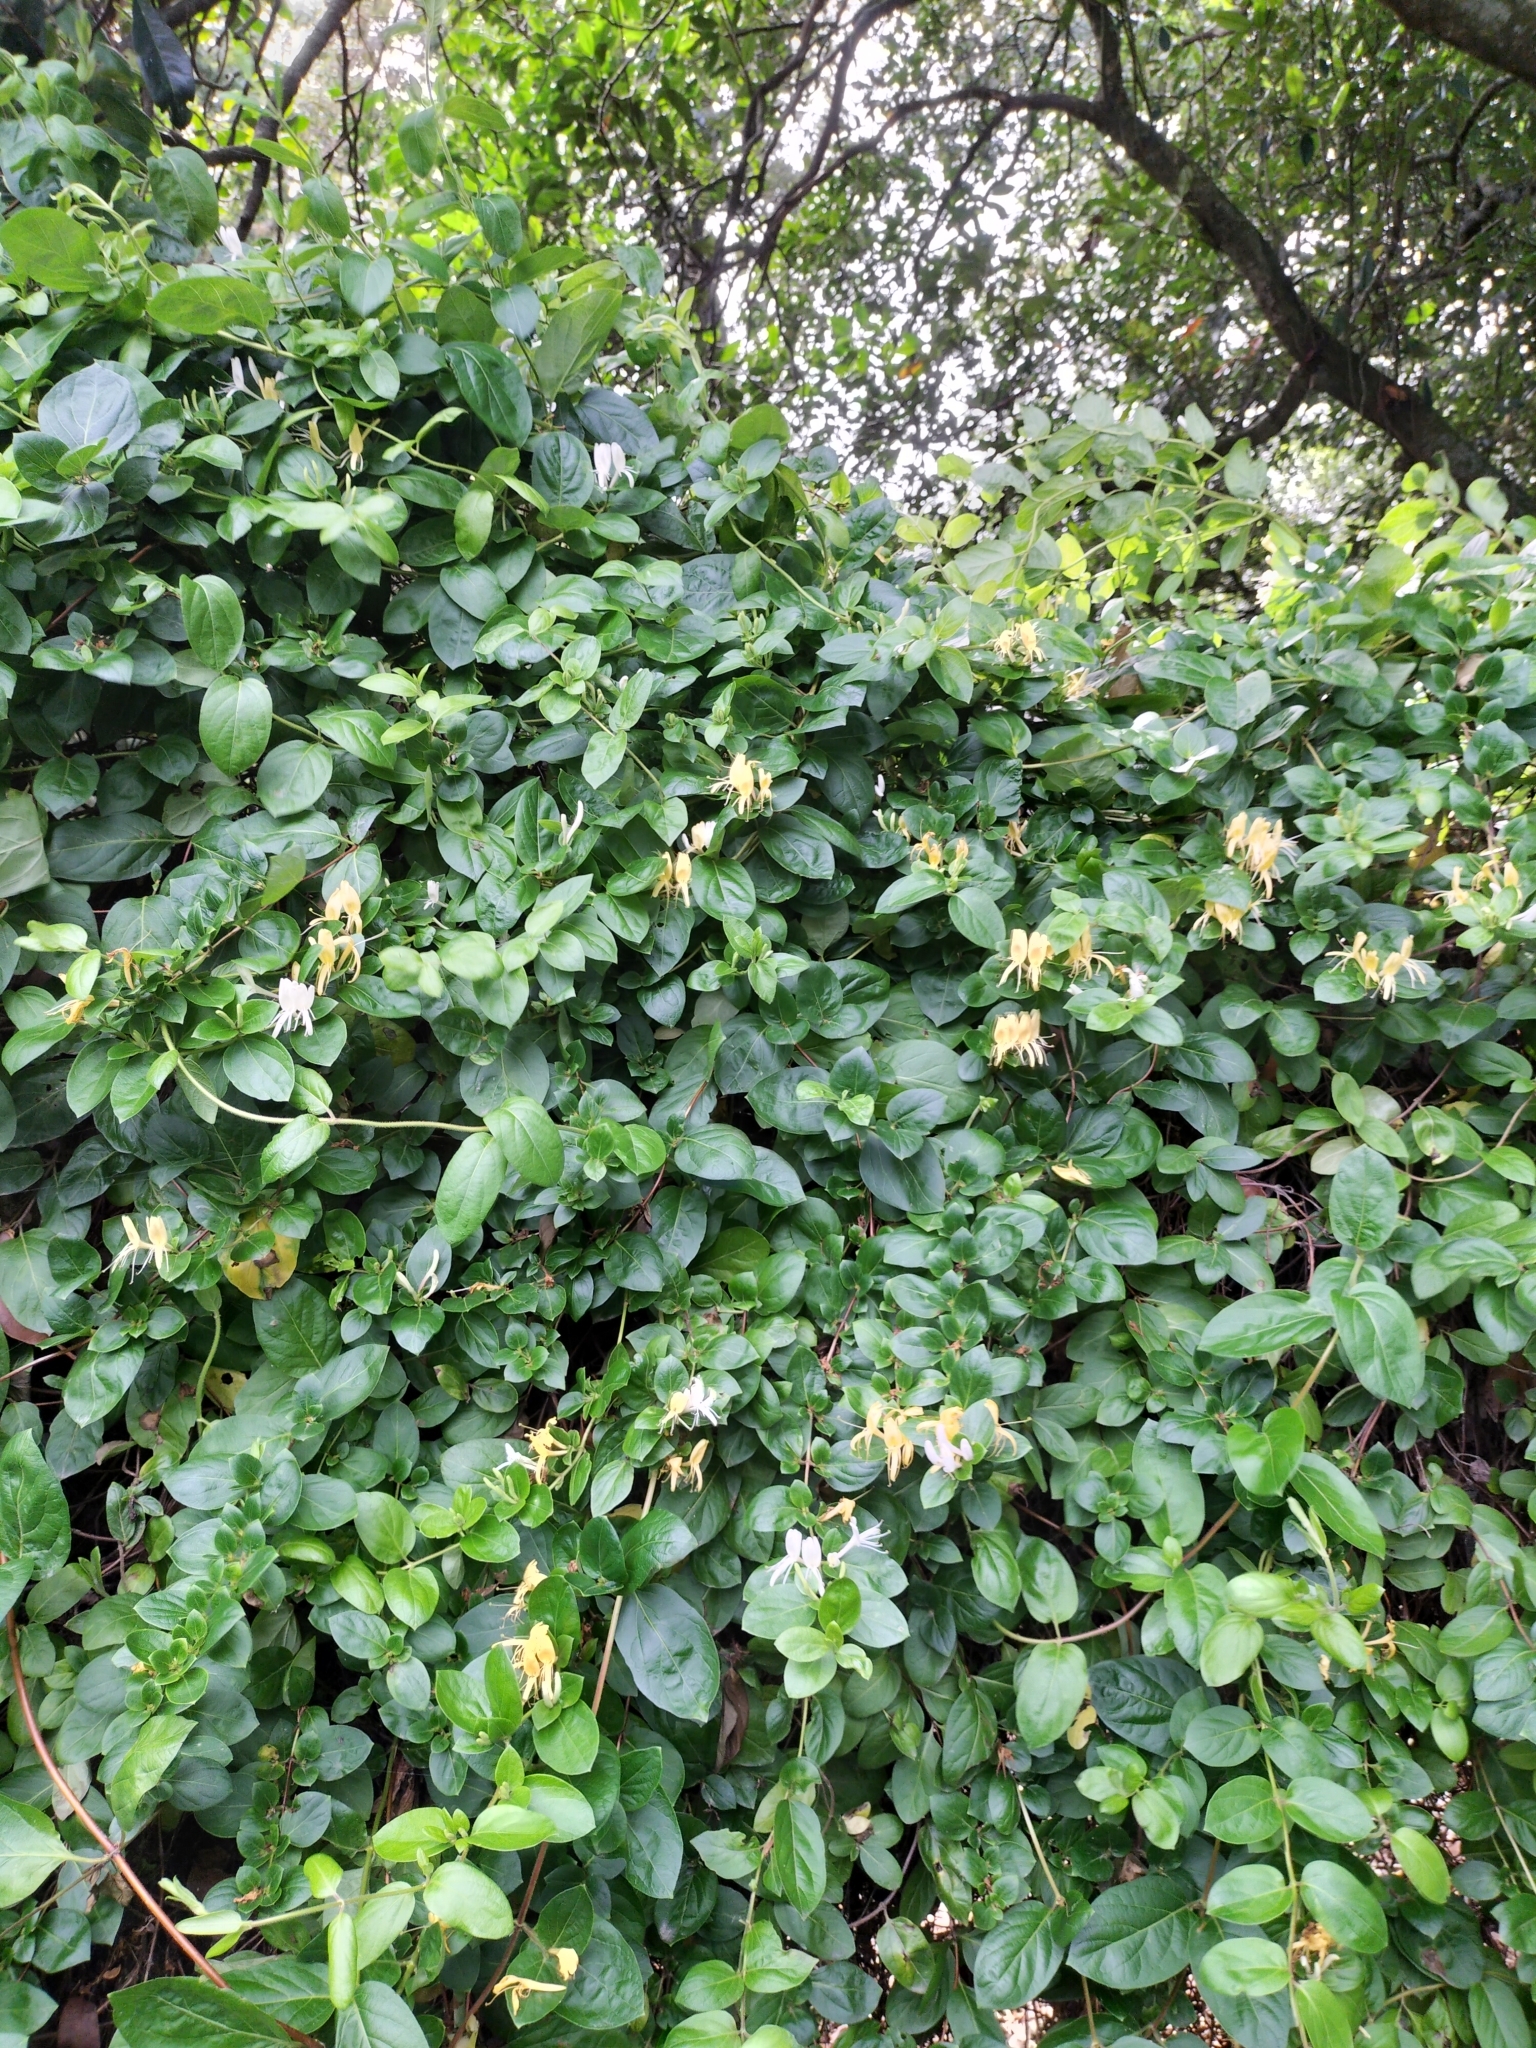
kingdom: Plantae
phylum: Tracheophyta
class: Magnoliopsida
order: Dipsacales
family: Caprifoliaceae
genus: Lonicera
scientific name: Lonicera japonica
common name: Japanese honeysuckle
